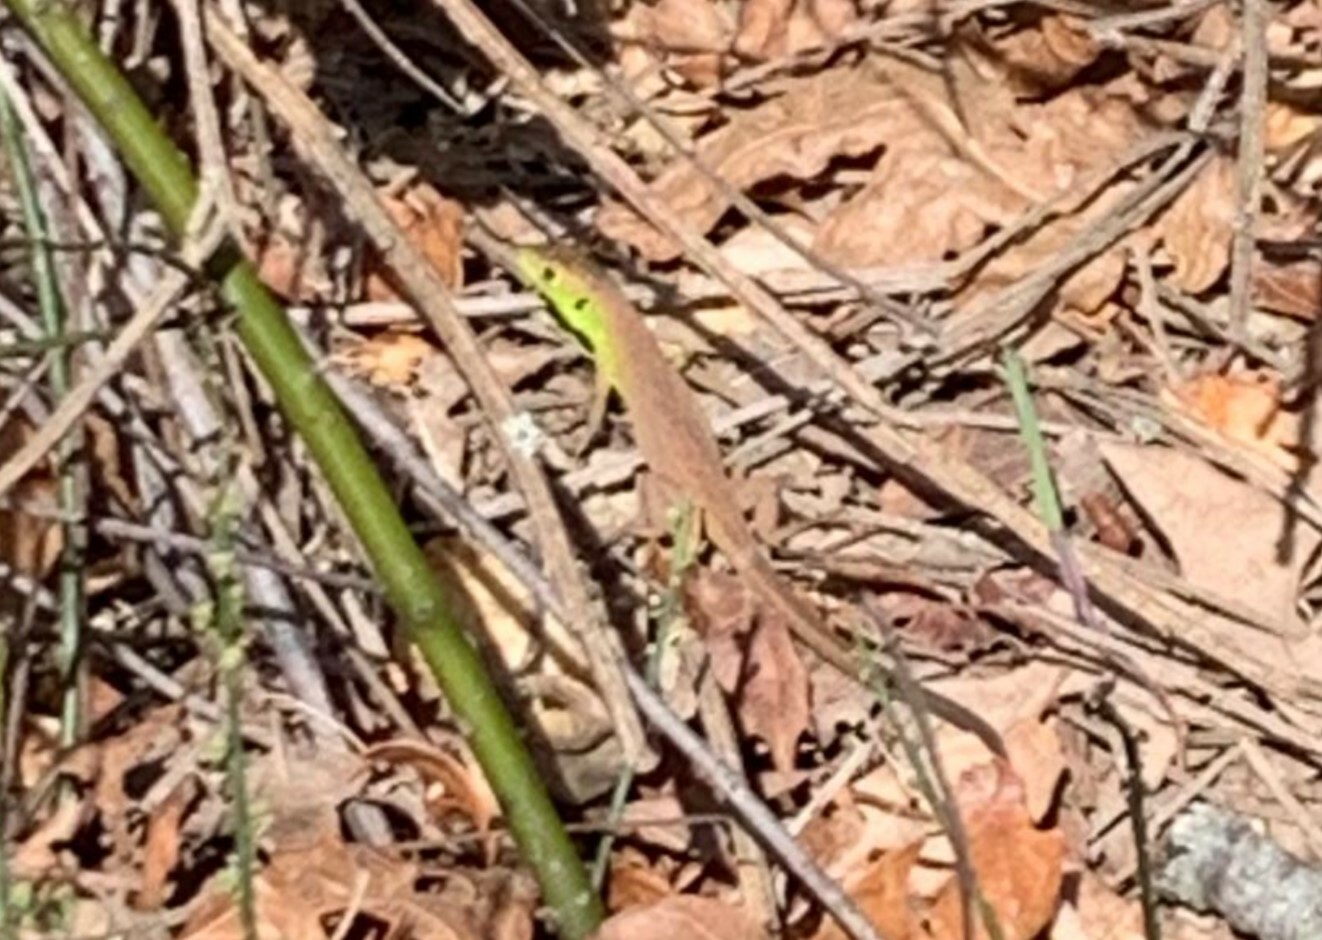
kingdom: Animalia
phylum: Chordata
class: Squamata
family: Lacertidae
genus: Lacerta
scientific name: Lacerta bilineata
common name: Western green lizard
